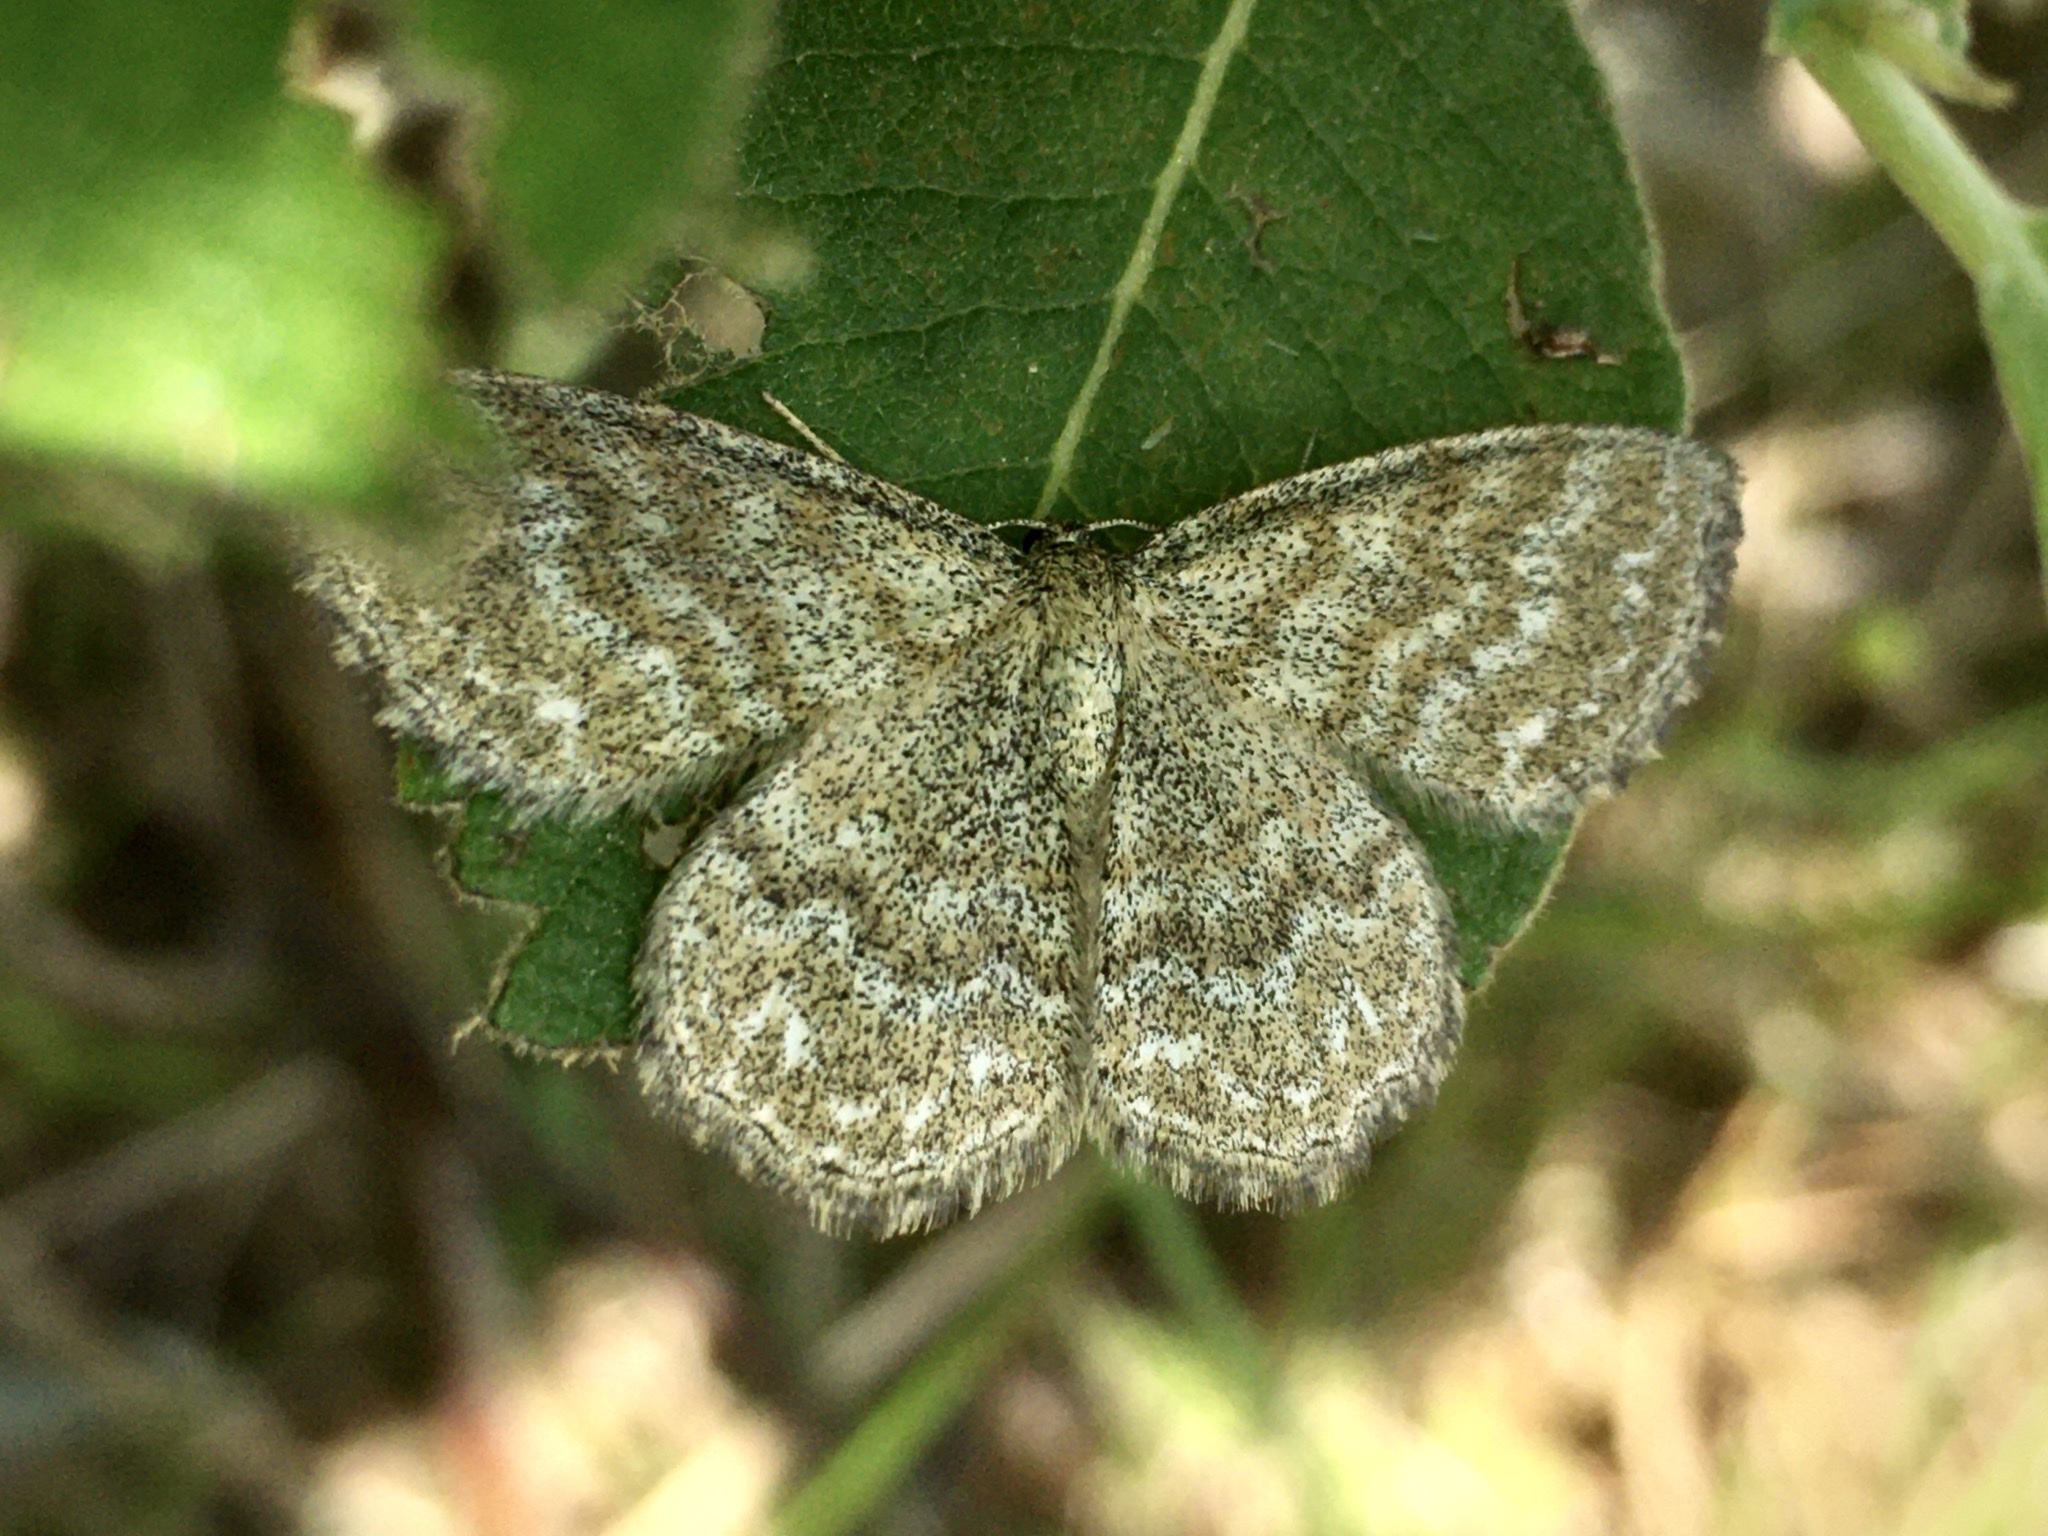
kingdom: Animalia
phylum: Arthropoda
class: Insecta
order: Lepidoptera
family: Geometridae
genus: Scopula
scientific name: Scopula immorata
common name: Lewes wave
